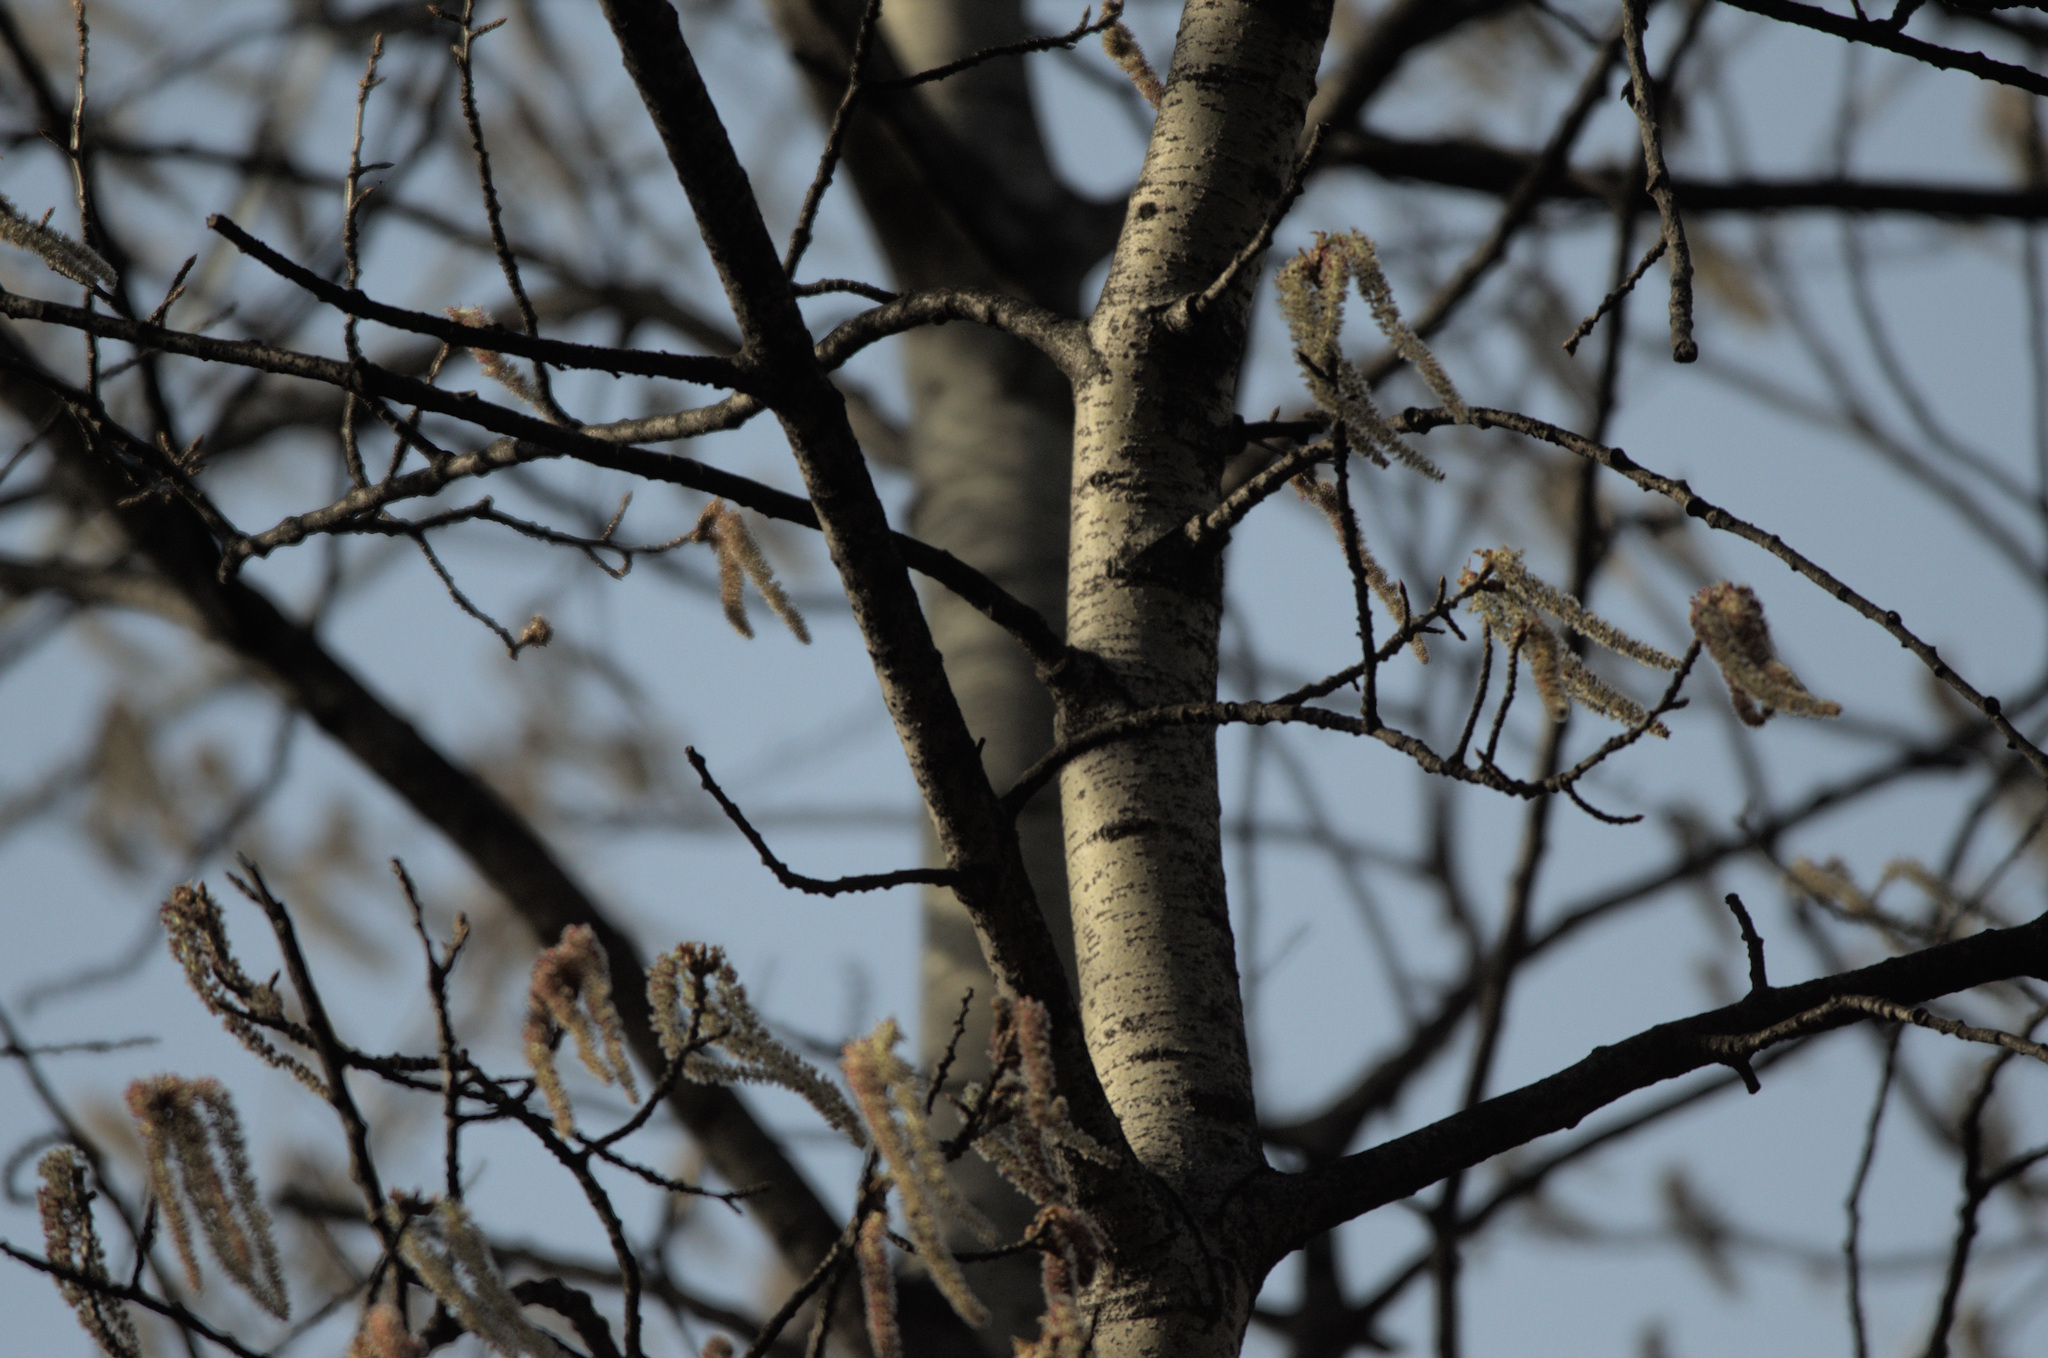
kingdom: Plantae
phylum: Tracheophyta
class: Magnoliopsida
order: Malpighiales
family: Salicaceae
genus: Populus
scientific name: Populus tremula
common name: European aspen
